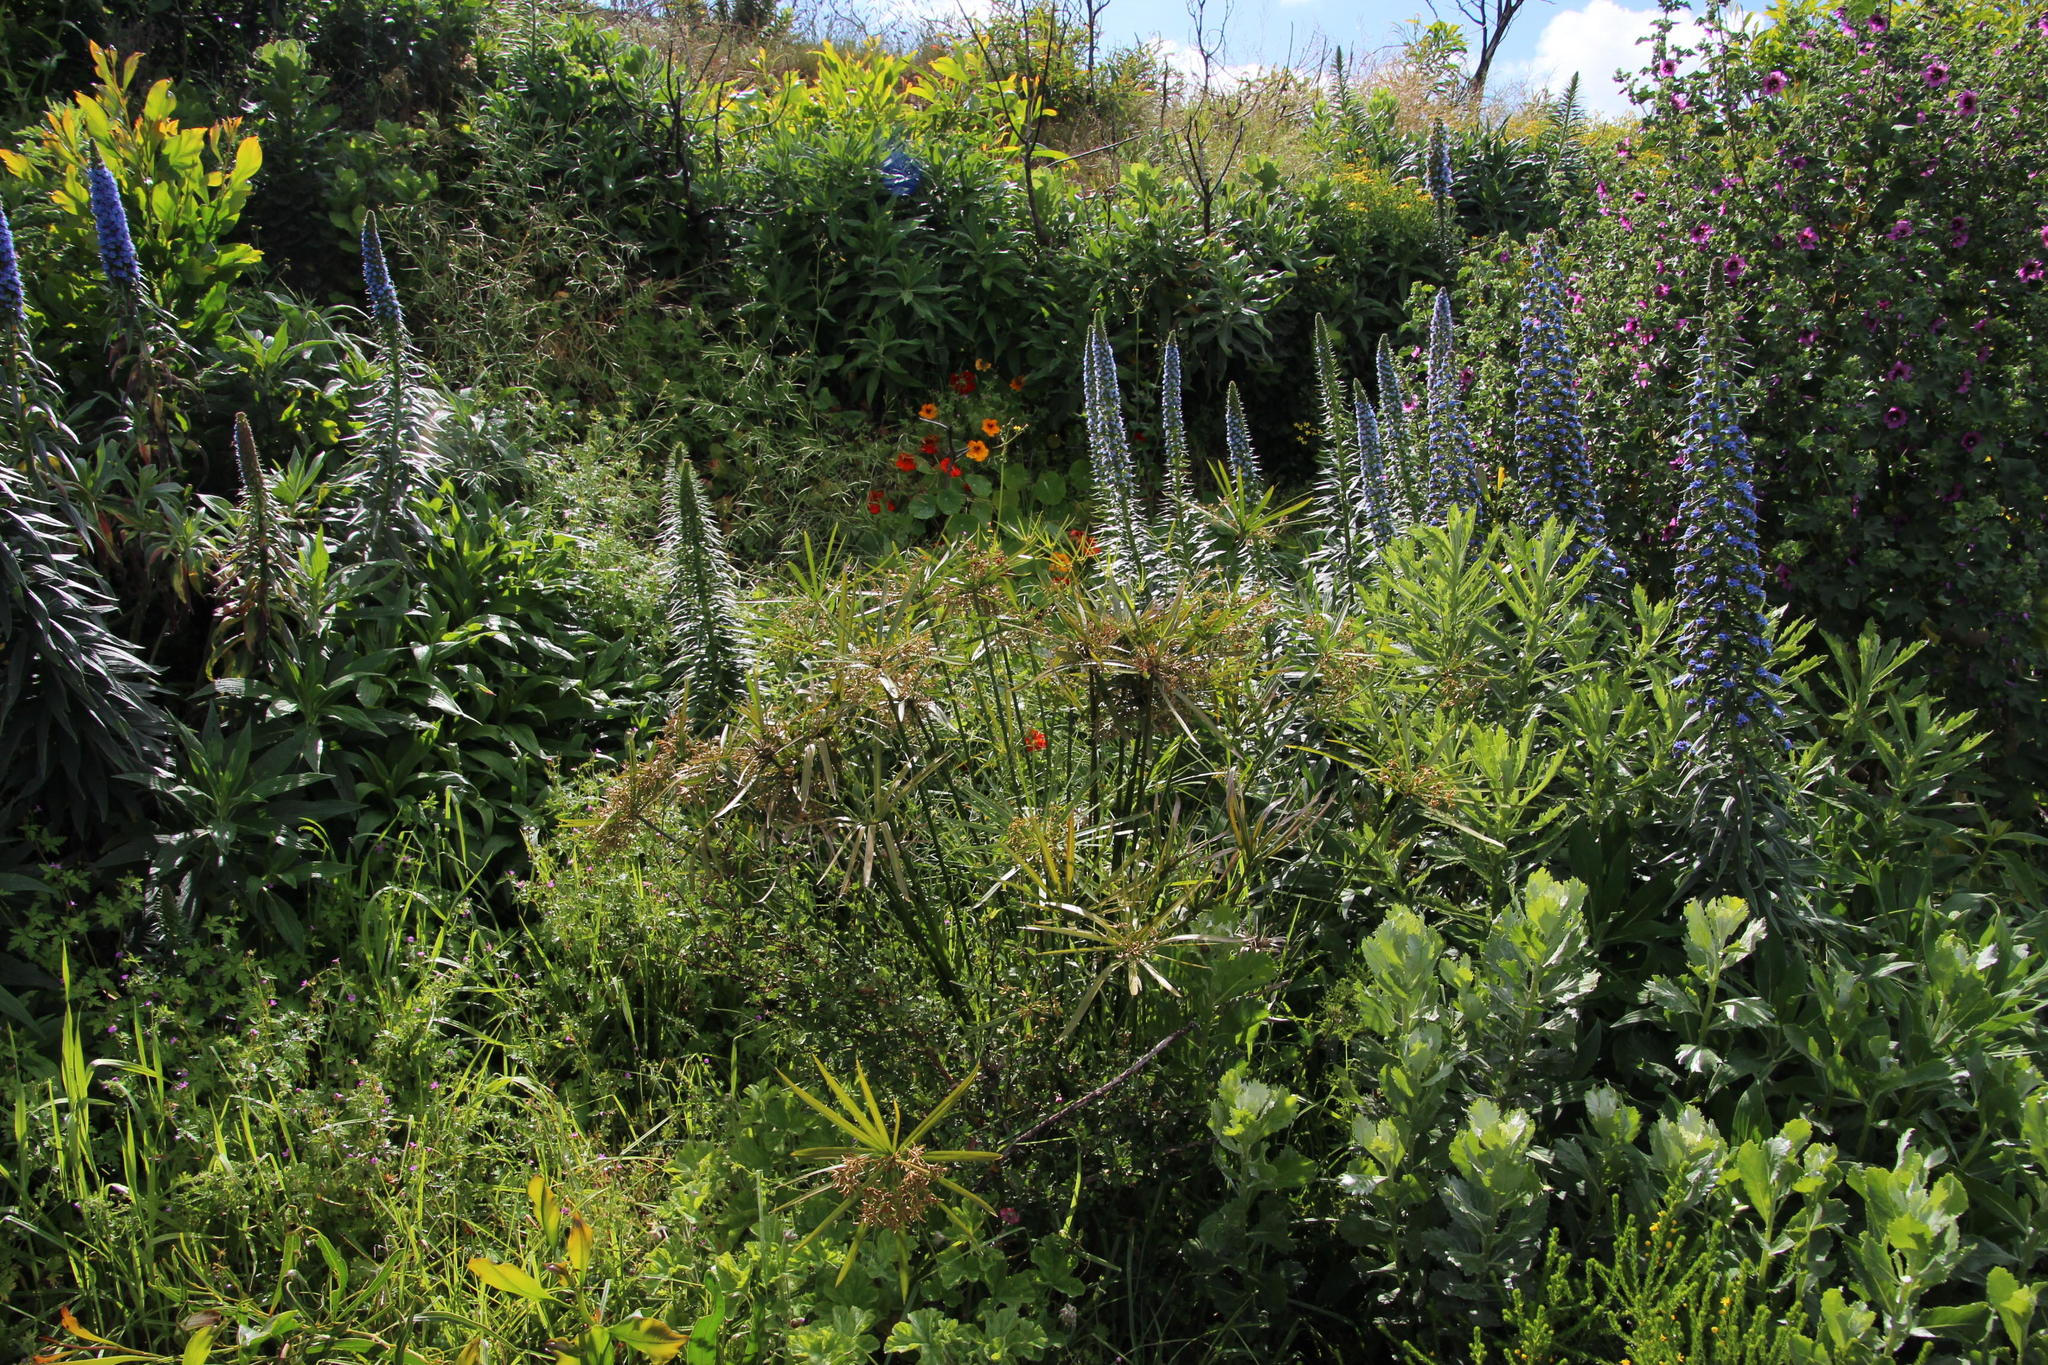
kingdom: Plantae
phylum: Tracheophyta
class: Liliopsida
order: Poales
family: Cyperaceae
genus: Cyperus
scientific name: Cyperus textilis
